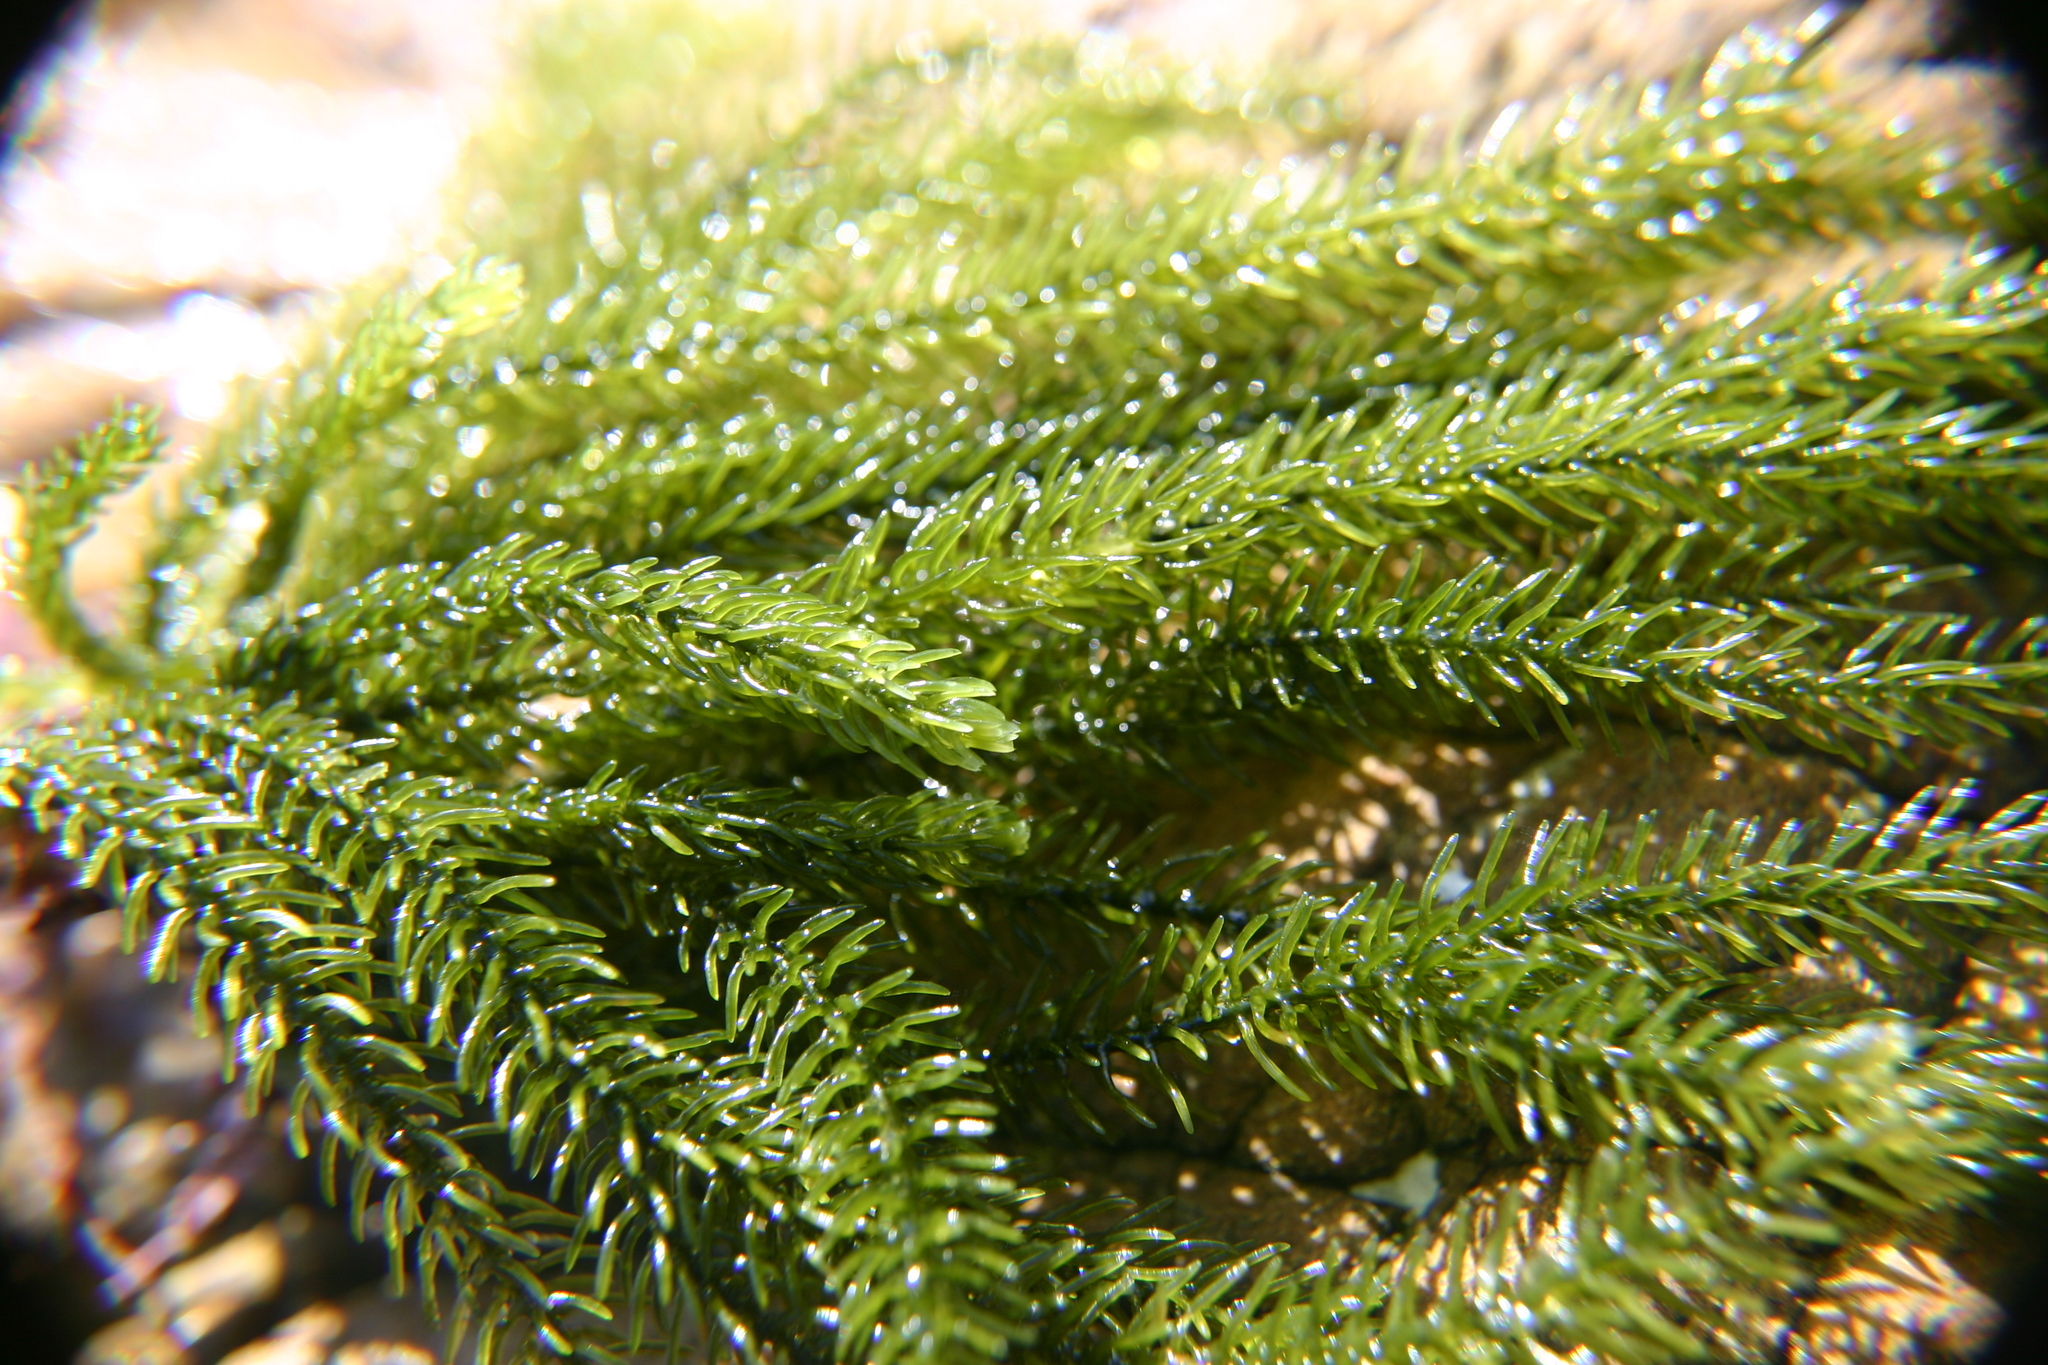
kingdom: Plantae
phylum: Chlorophyta
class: Ulvophyceae
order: Bryopsidales
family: Caulerpaceae
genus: Caulerpa
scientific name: Caulerpa brownii
